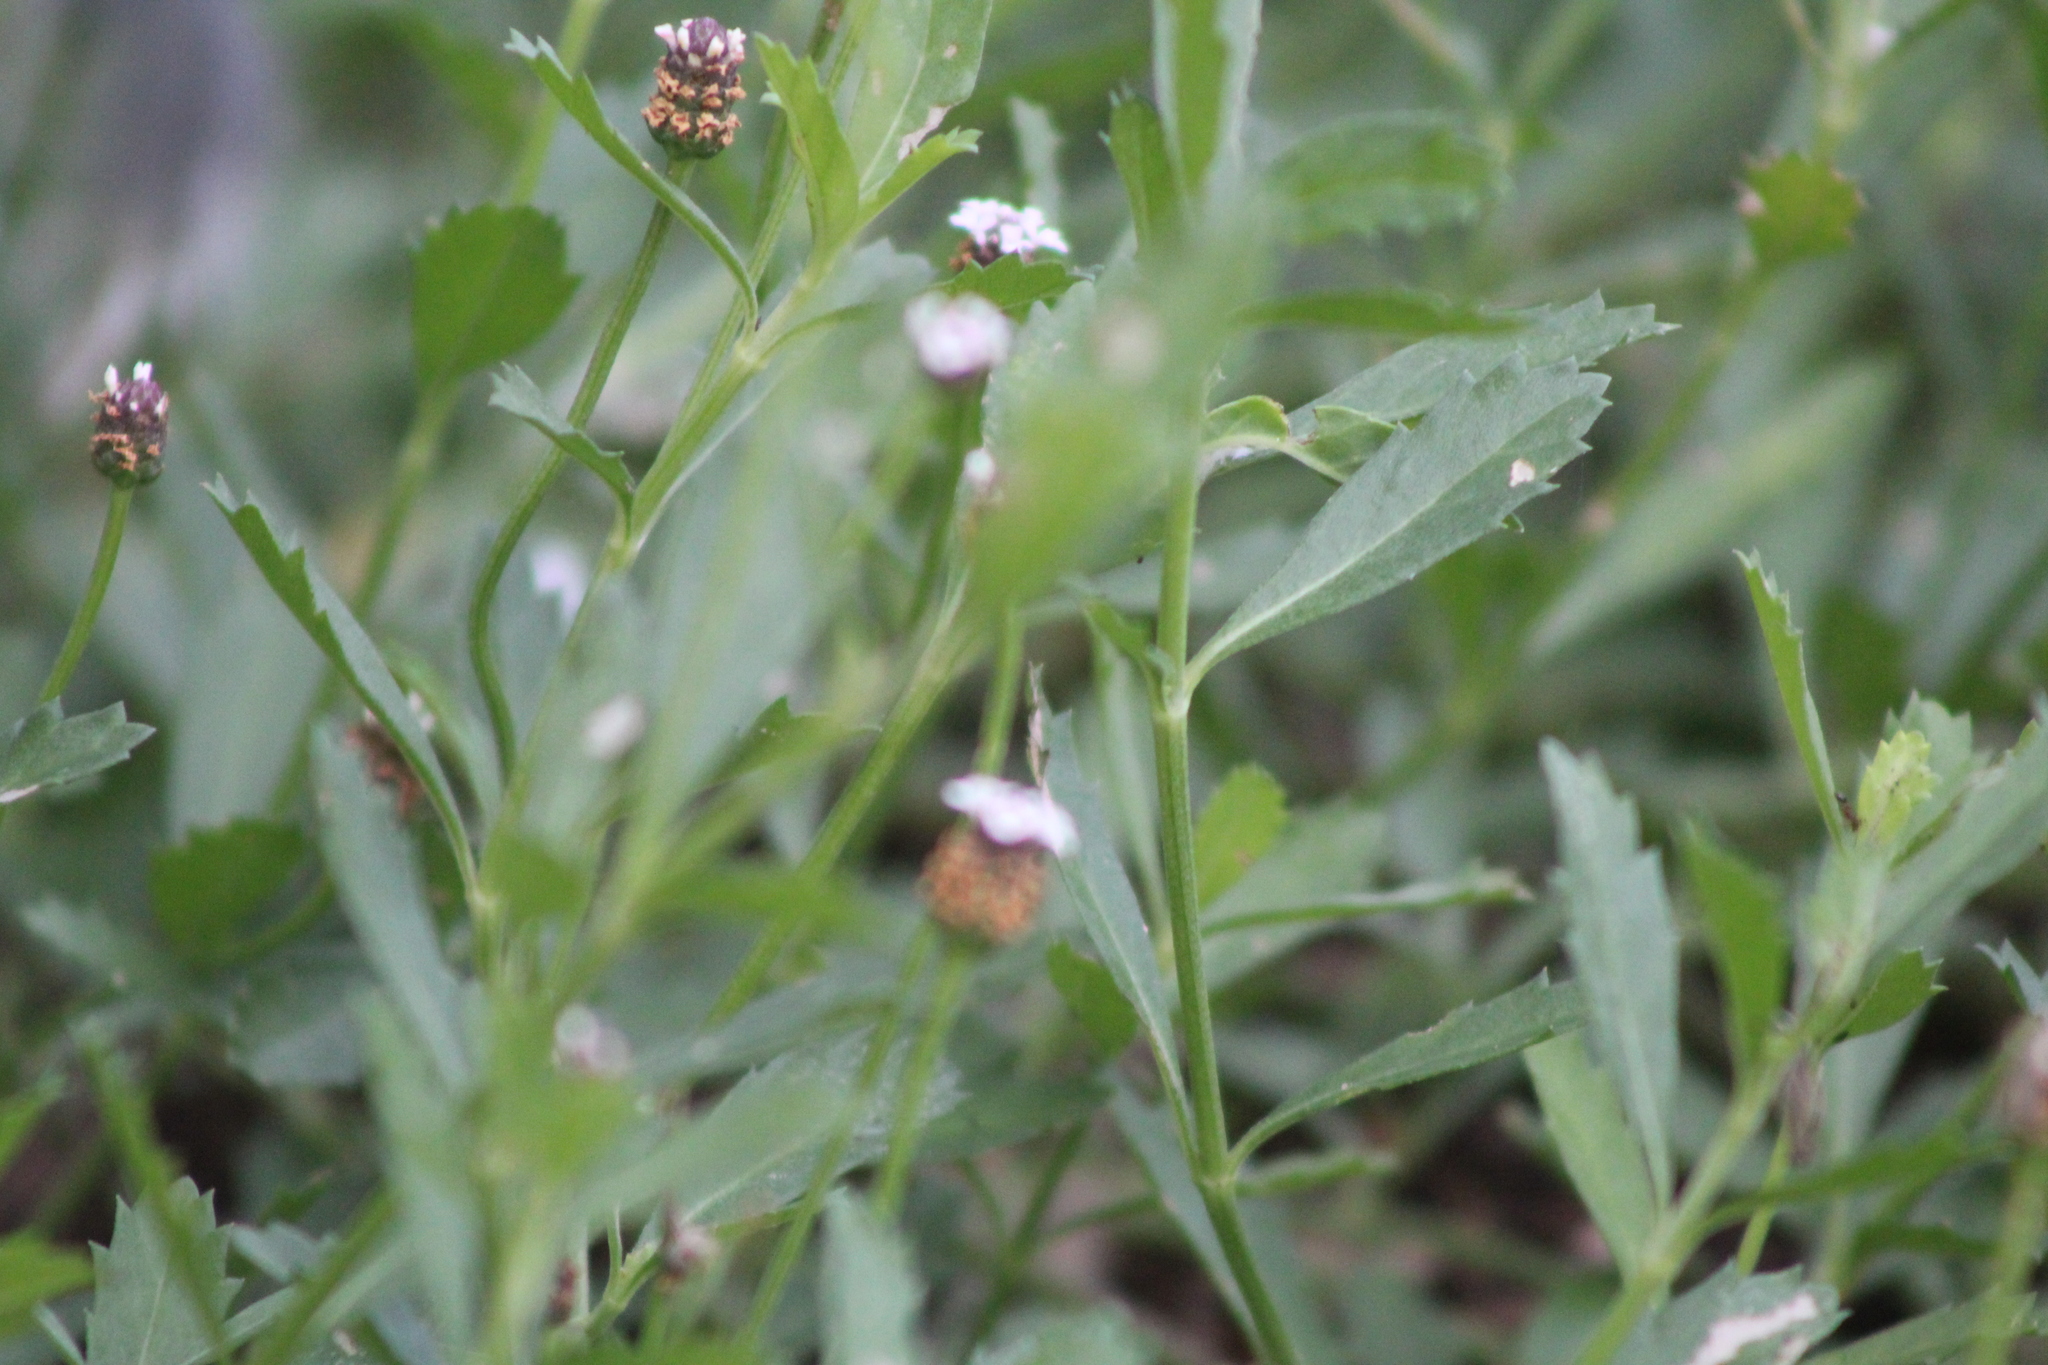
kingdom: Plantae
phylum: Tracheophyta
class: Magnoliopsida
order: Lamiales
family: Verbenaceae
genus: Phyla
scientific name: Phyla nodiflora
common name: Frogfruit
